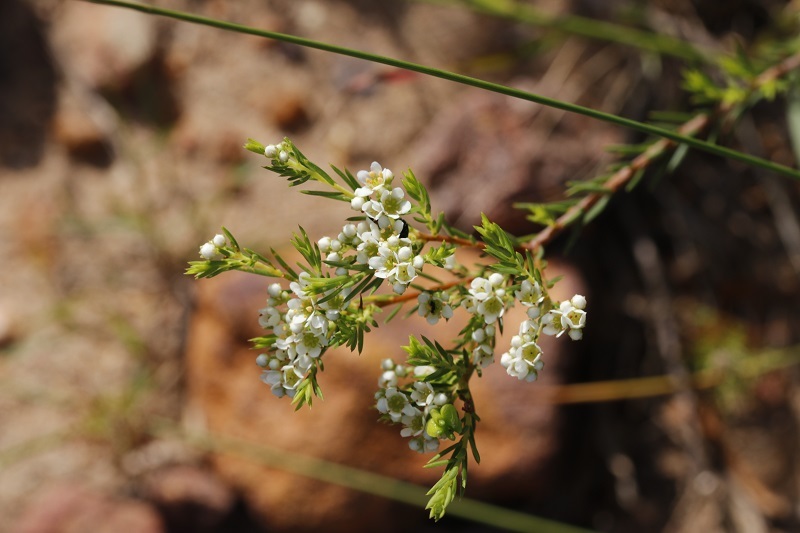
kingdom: Plantae
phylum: Tracheophyta
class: Magnoliopsida
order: Sapindales
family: Rutaceae
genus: Diosma
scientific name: Diosma hirsuta
